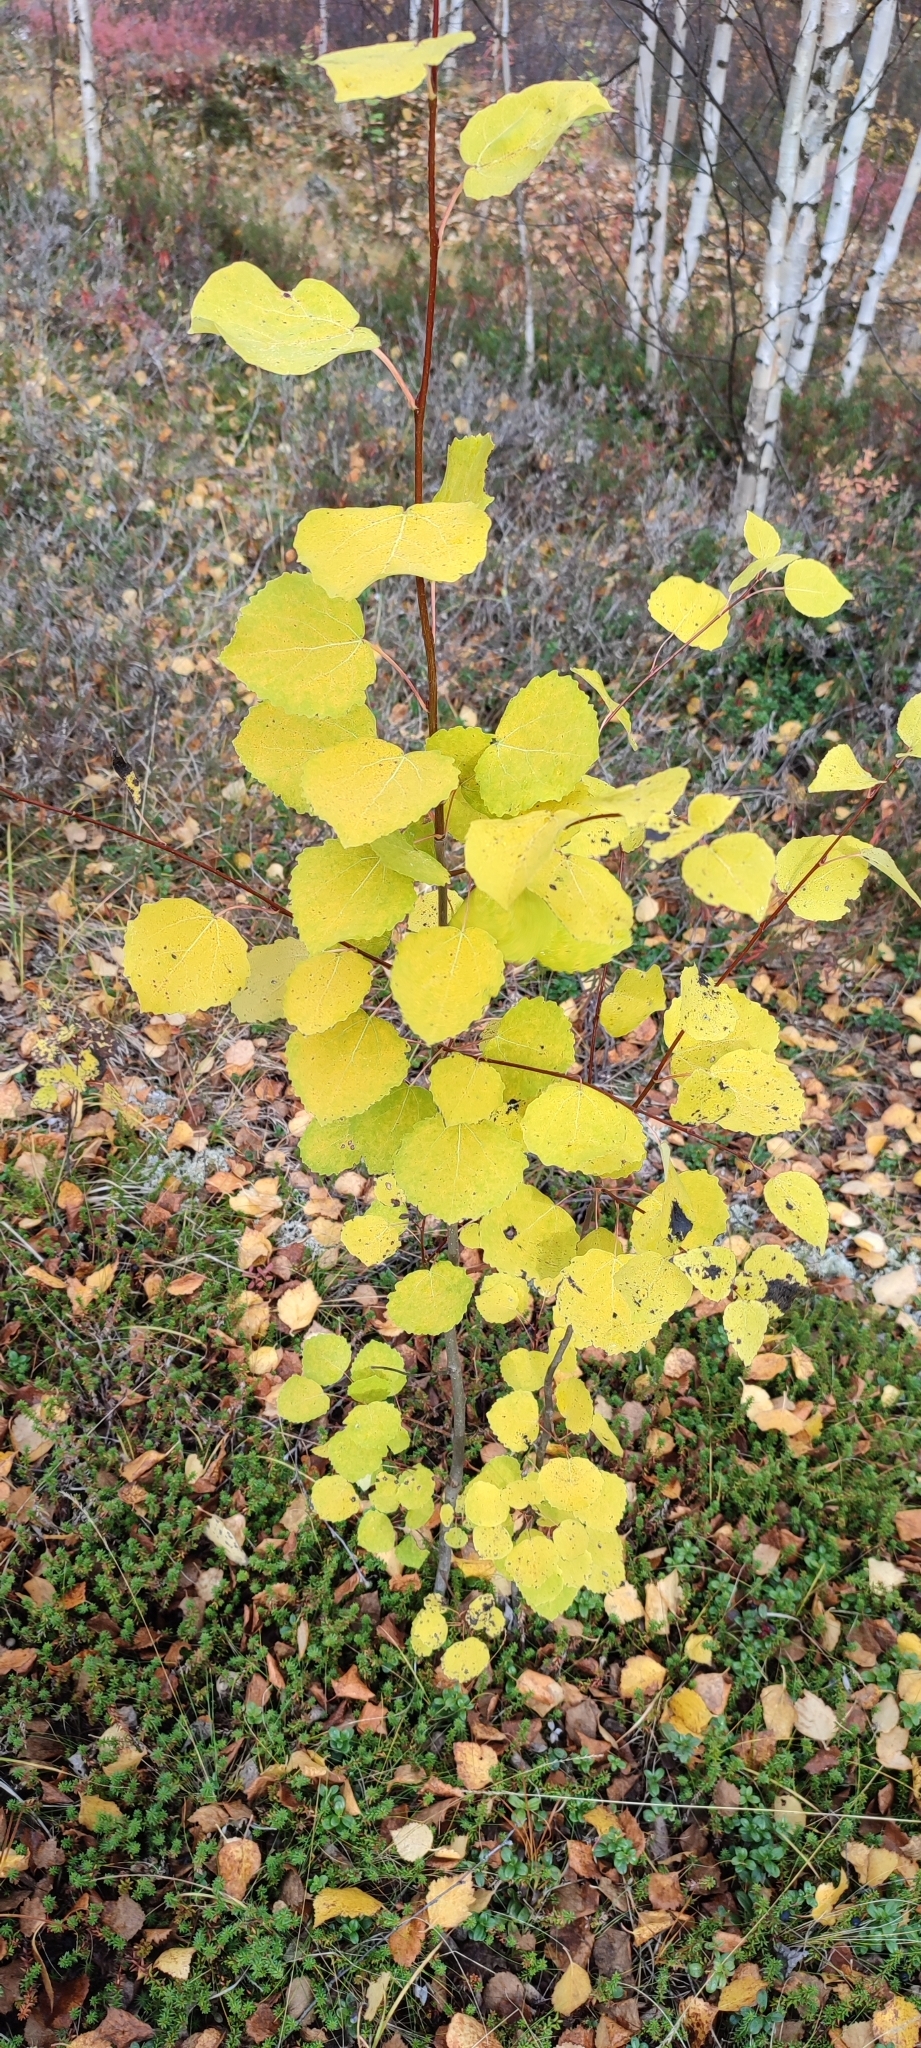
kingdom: Plantae
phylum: Tracheophyta
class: Magnoliopsida
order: Malpighiales
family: Salicaceae
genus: Populus
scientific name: Populus tremula
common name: European aspen
